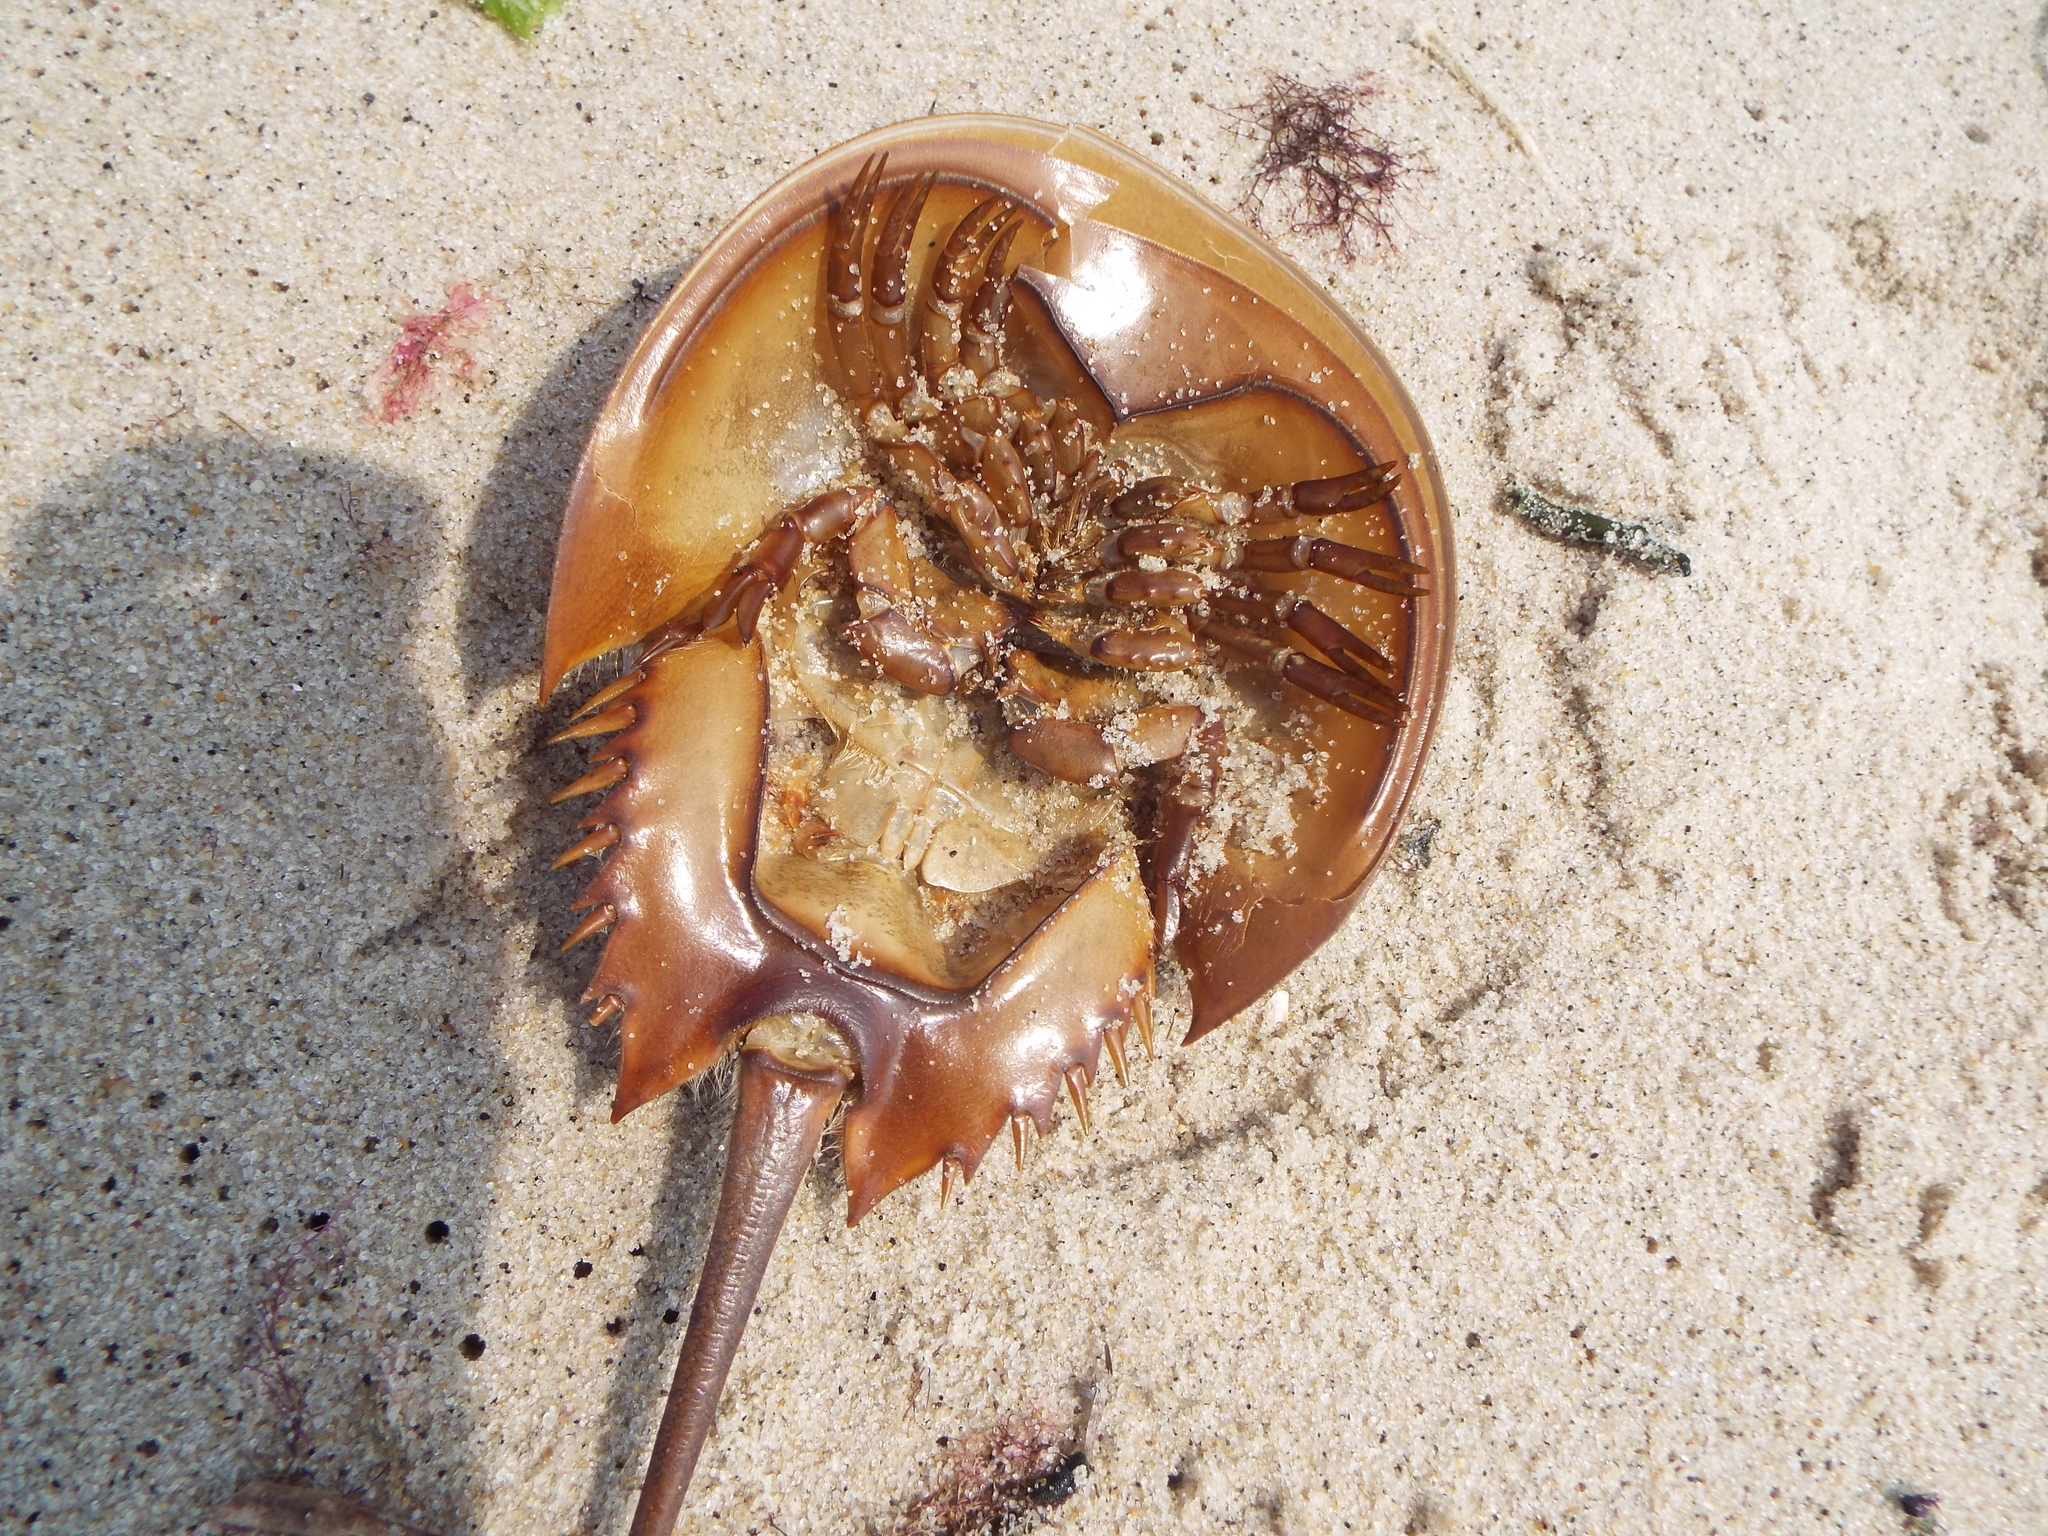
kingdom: Animalia
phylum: Arthropoda
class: Merostomata
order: Xiphosurida
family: Limulidae
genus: Limulus
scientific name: Limulus polyphemus
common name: Horseshoe crab
